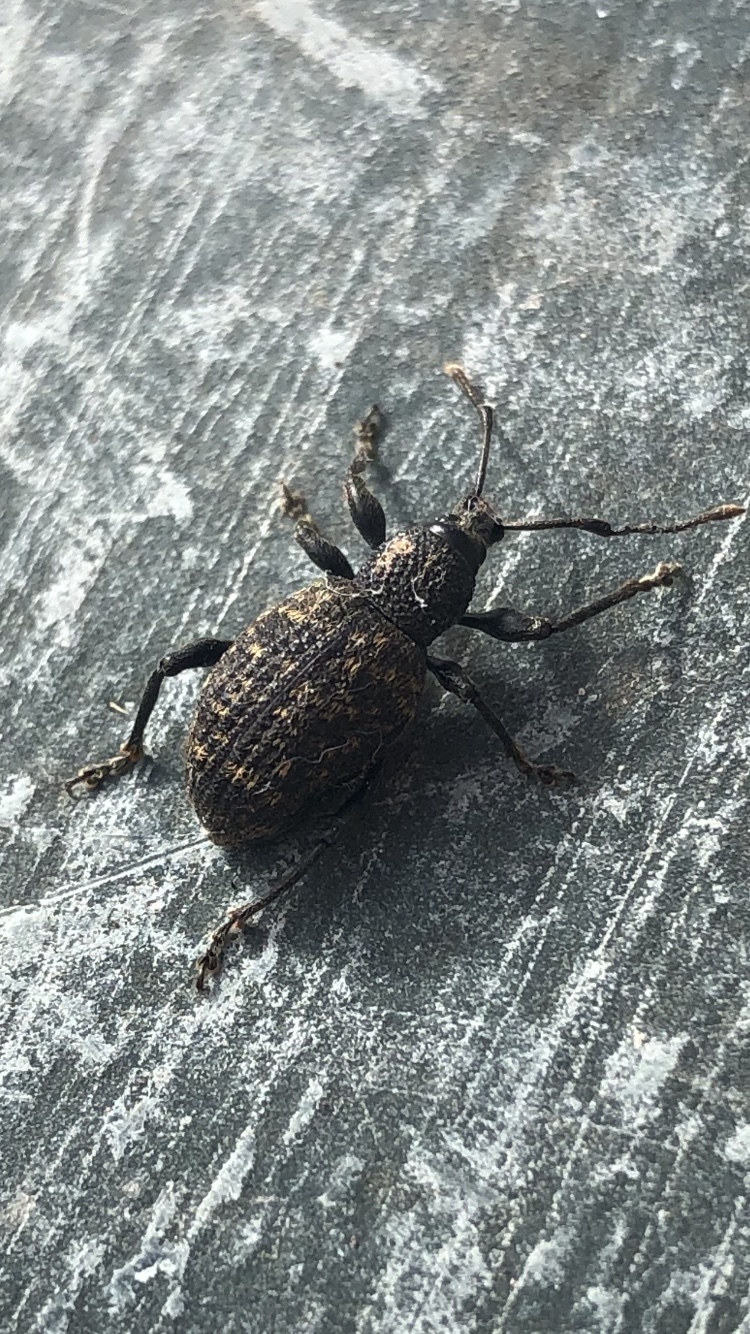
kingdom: Animalia
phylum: Arthropoda
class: Insecta
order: Coleoptera
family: Curculionidae
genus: Otiorhynchus
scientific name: Otiorhynchus sulcatus
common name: Black vine weevil
